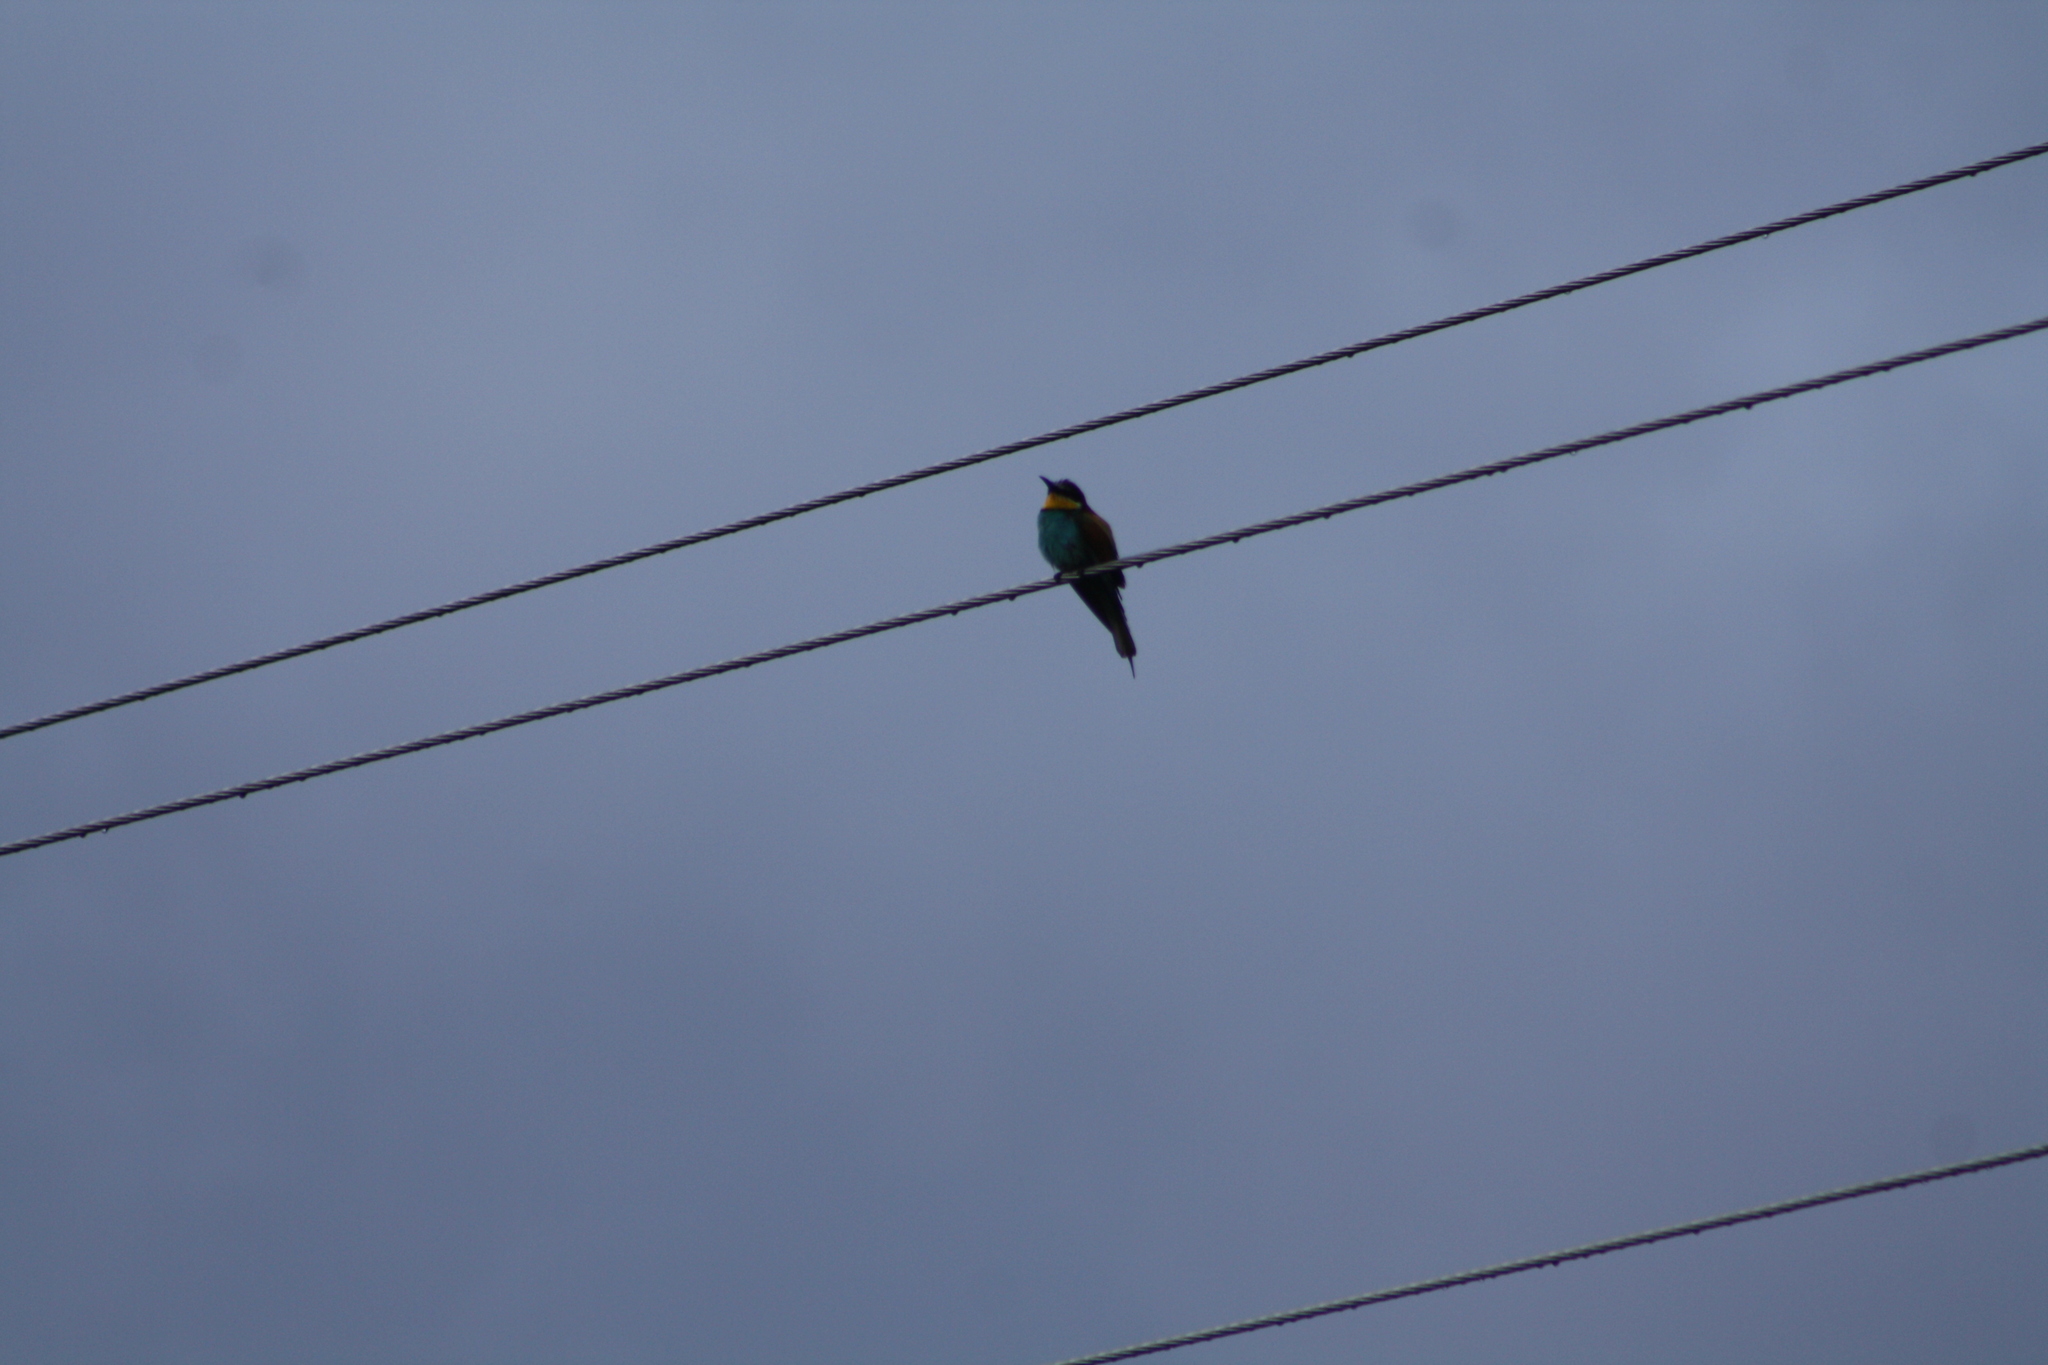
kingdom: Animalia
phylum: Chordata
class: Aves
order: Coraciiformes
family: Meropidae
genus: Merops
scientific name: Merops apiaster
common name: European bee-eater
